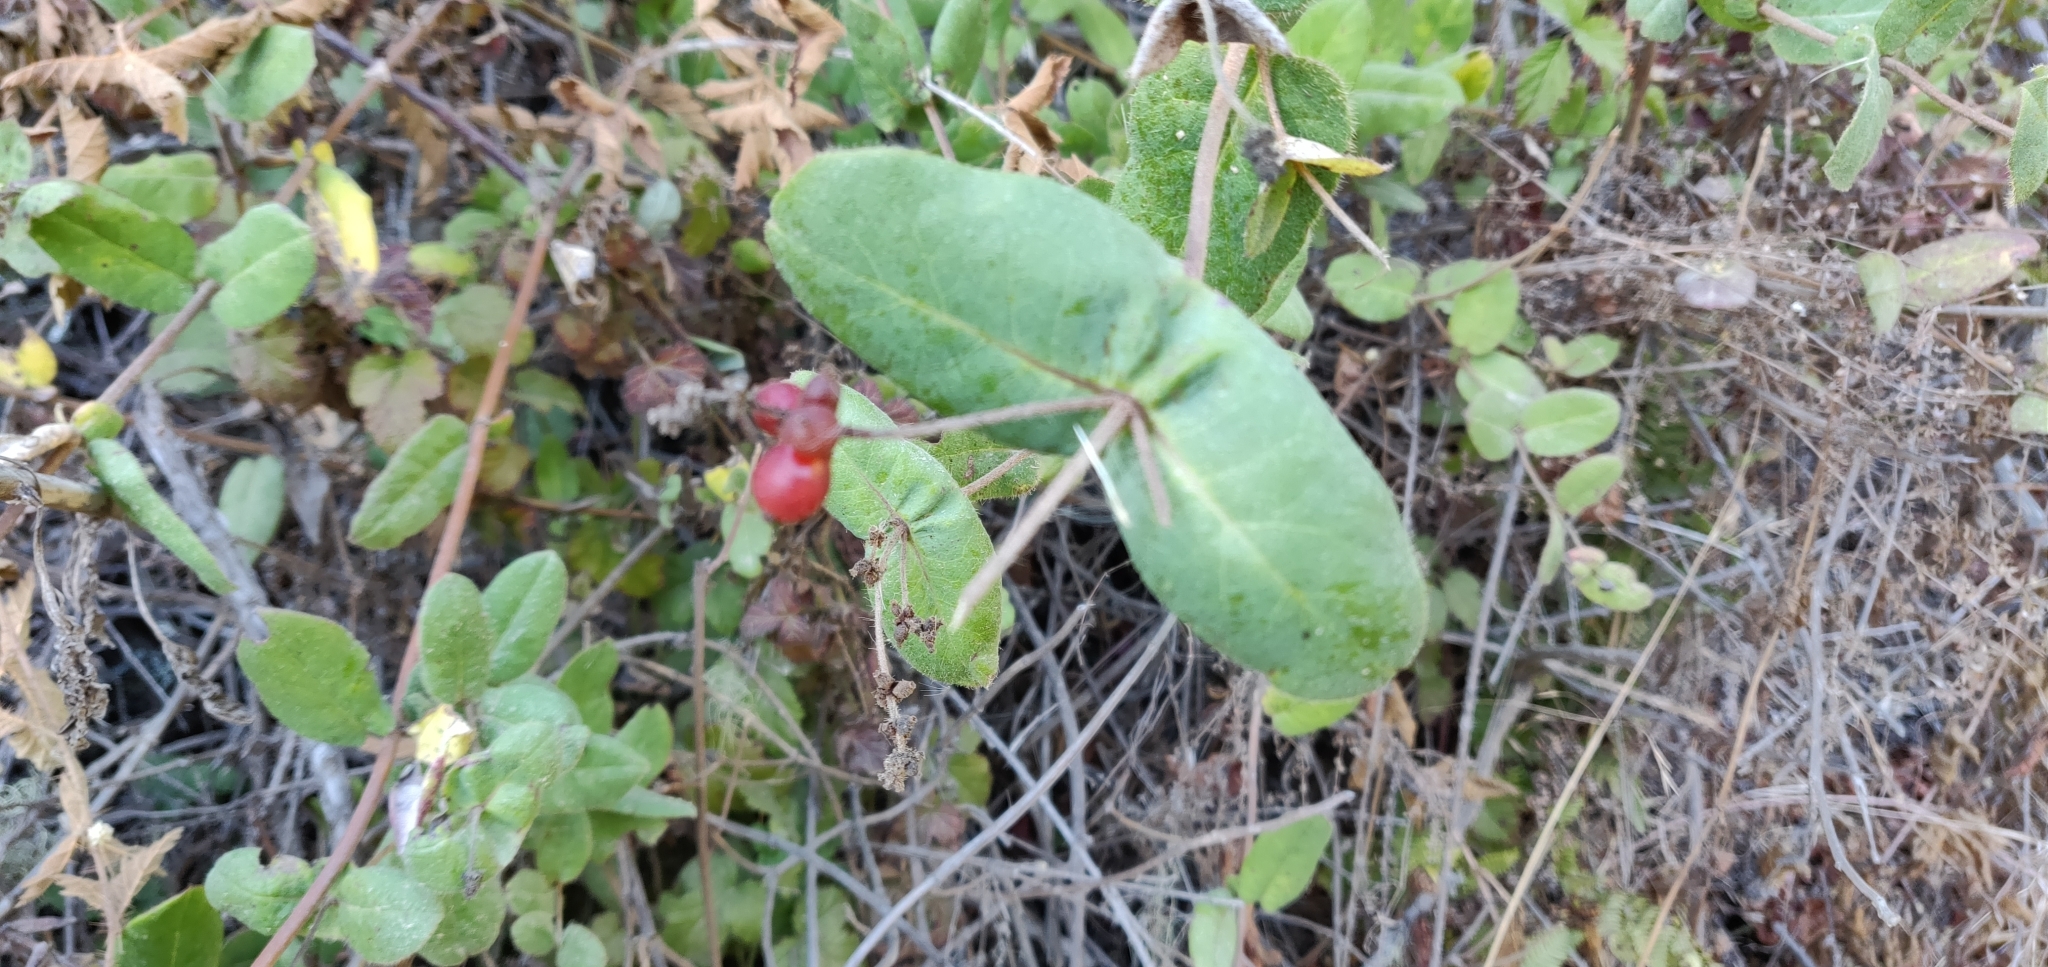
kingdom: Plantae
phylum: Tracheophyta
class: Magnoliopsida
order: Dipsacales
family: Caprifoliaceae
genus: Lonicera
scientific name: Lonicera hispidula
